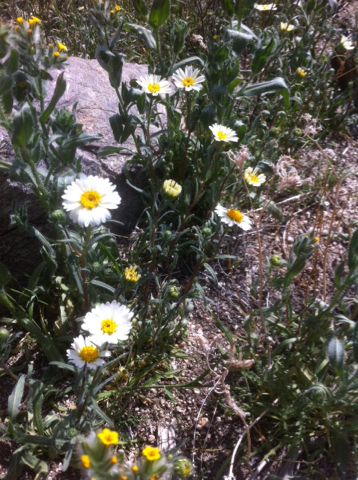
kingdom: Plantae
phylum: Tracheophyta
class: Magnoliopsida
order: Asterales
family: Asteraceae
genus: Layia
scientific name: Layia glandulosa
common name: White layia
